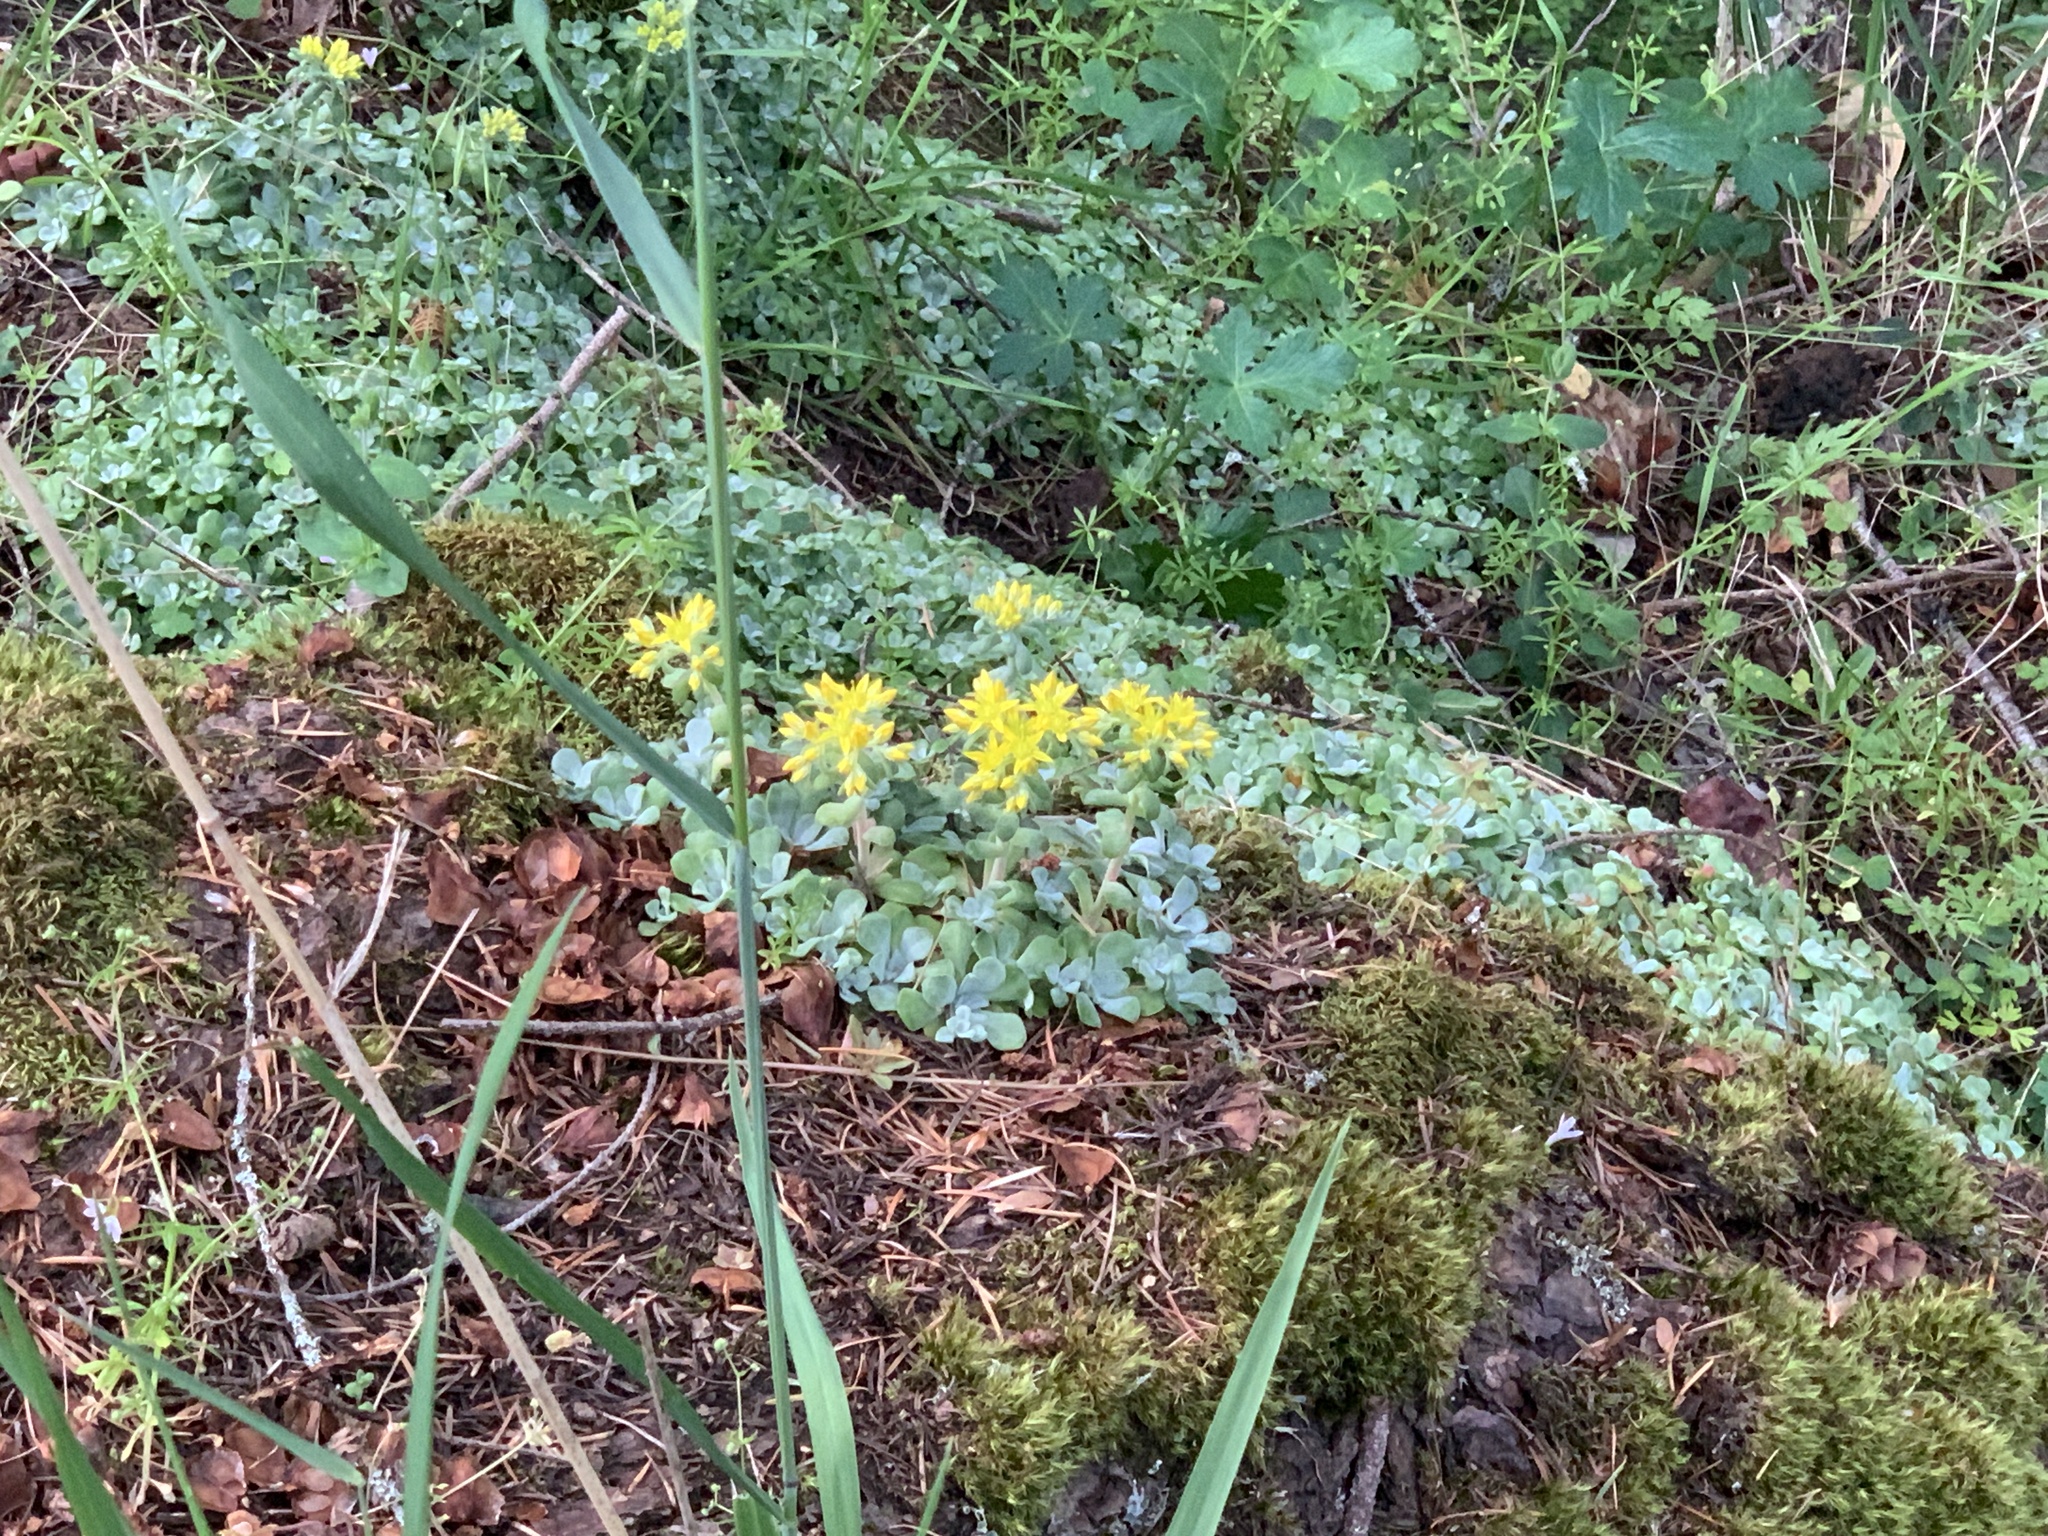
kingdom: Plantae
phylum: Tracheophyta
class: Magnoliopsida
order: Saxifragales
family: Crassulaceae
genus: Sedum
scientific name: Sedum spathulifolium
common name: Colorado stonecrop
